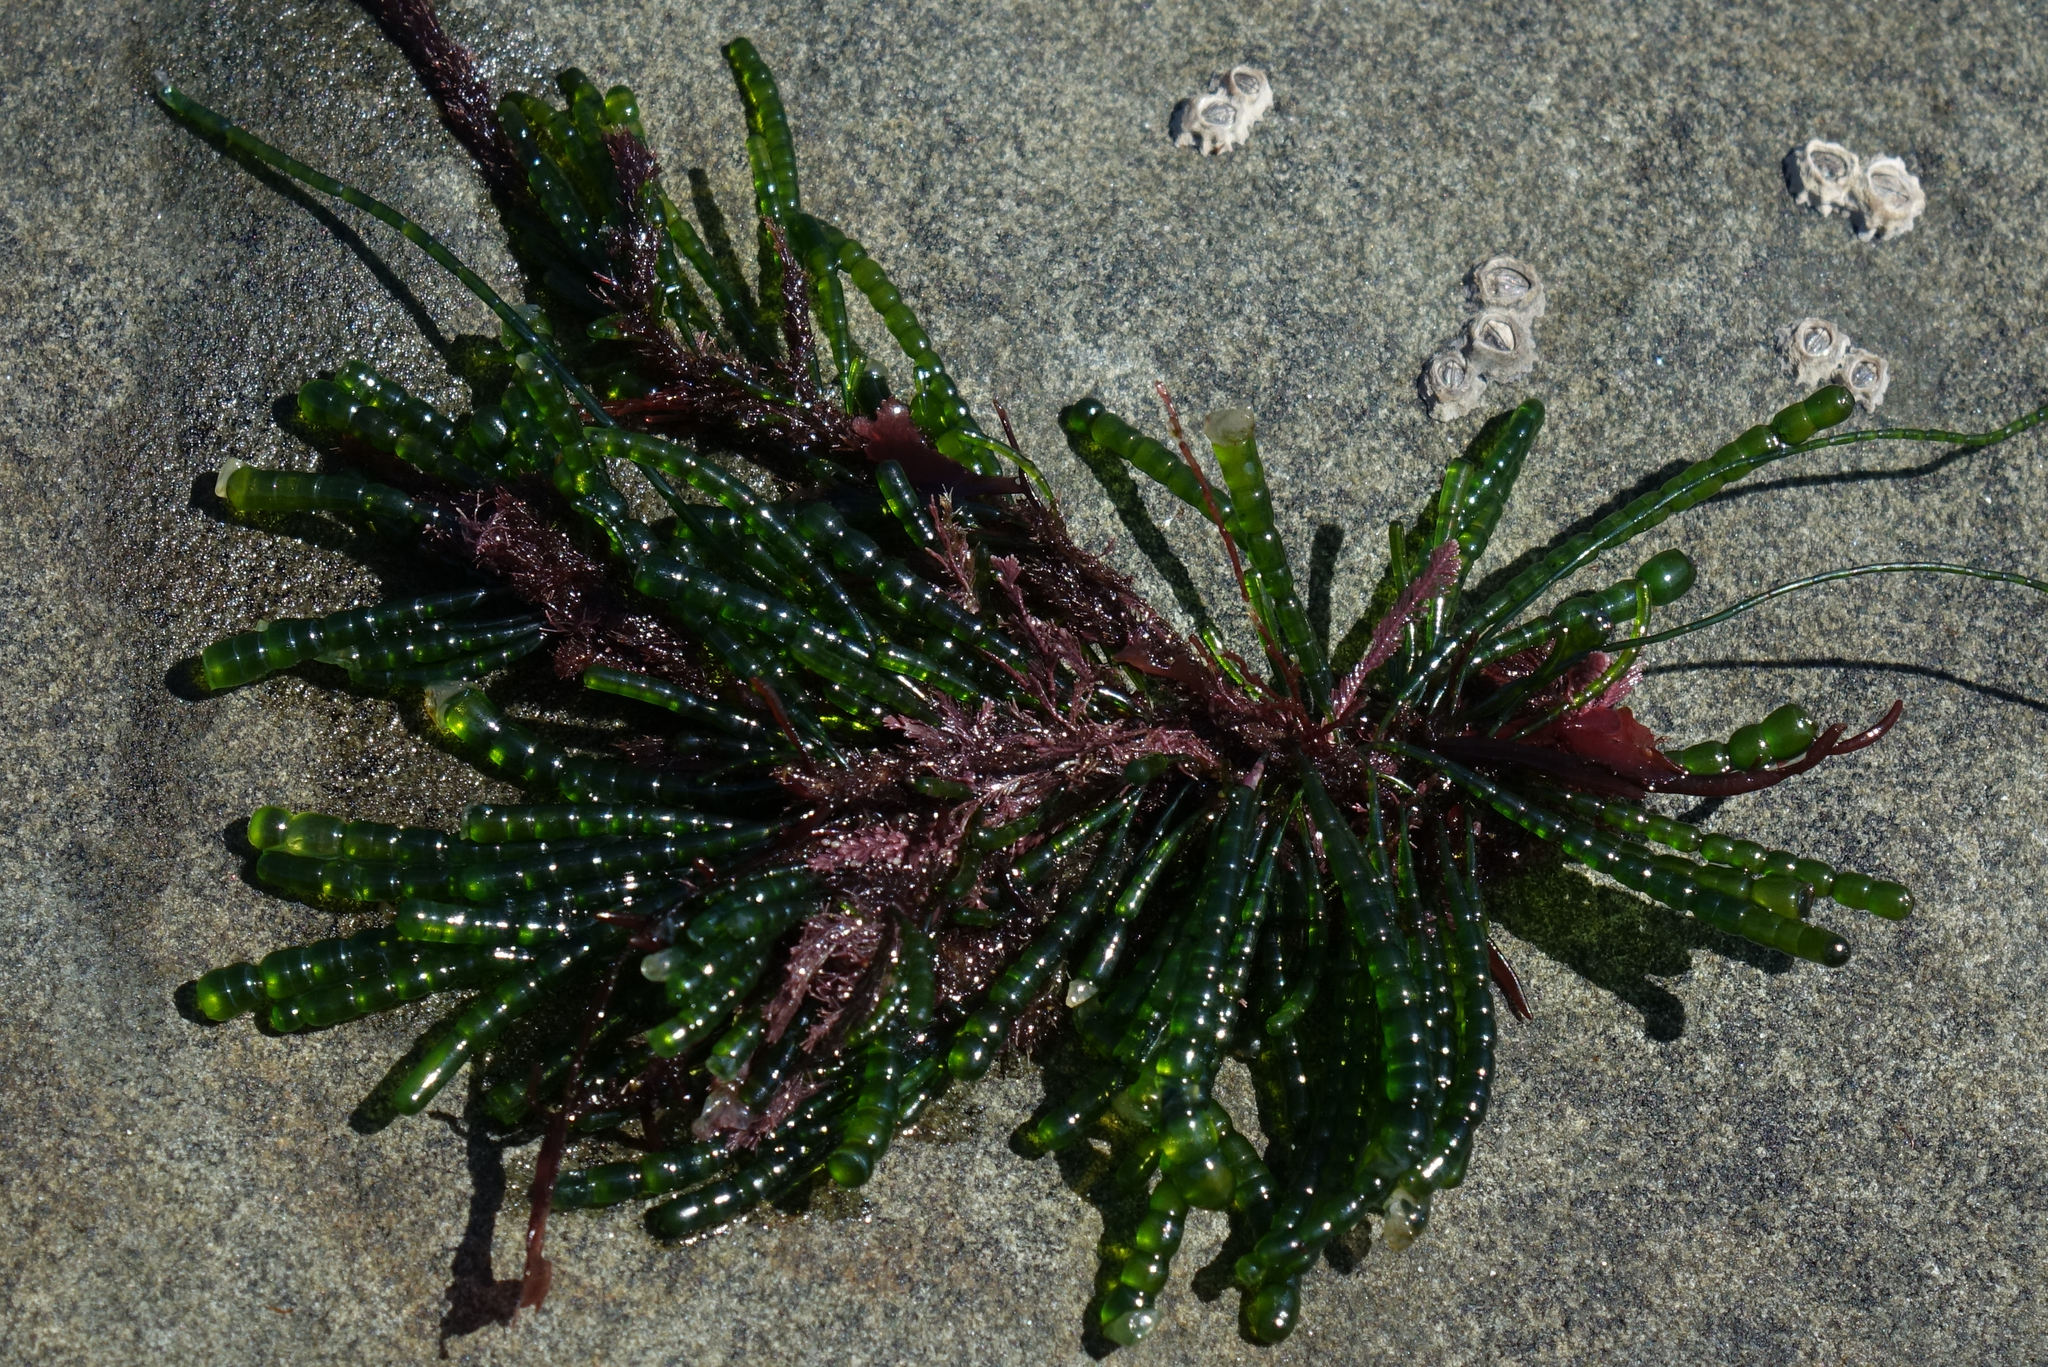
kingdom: Plantae
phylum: Chlorophyta
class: Ulvophyceae
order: Cladophorales
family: Cladophoraceae
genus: Chaetomorpha
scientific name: Chaetomorpha coliformis
